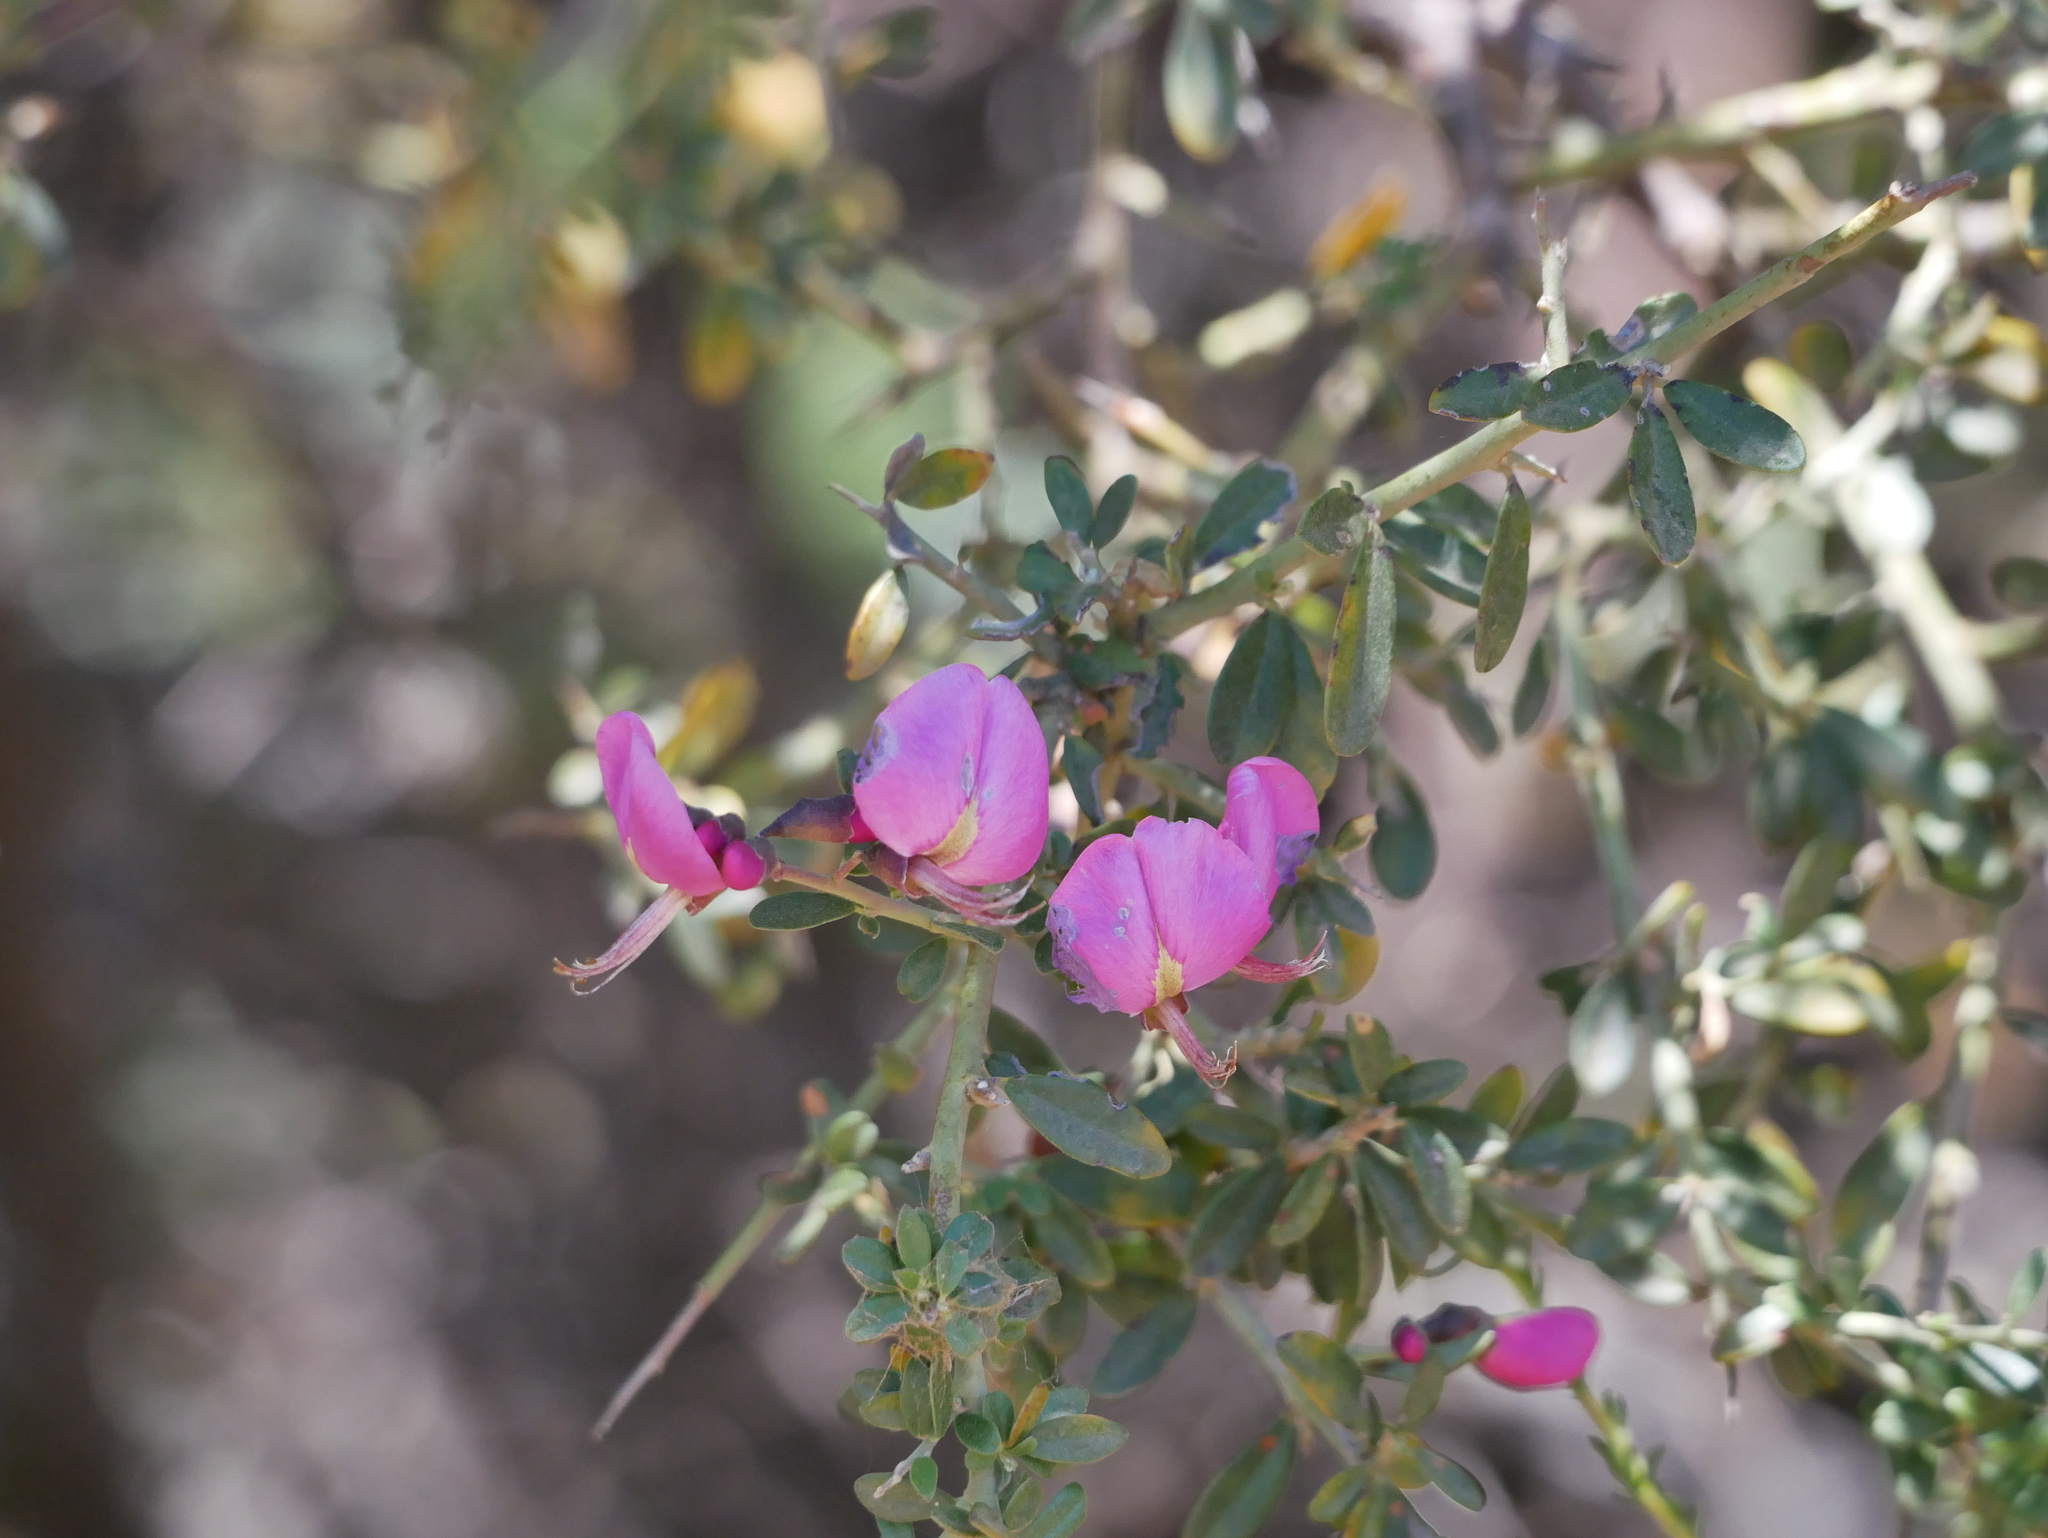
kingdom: Plantae
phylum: Tracheophyta
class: Magnoliopsida
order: Fabales
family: Fabaceae
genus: Pickeringia
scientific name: Pickeringia montana
